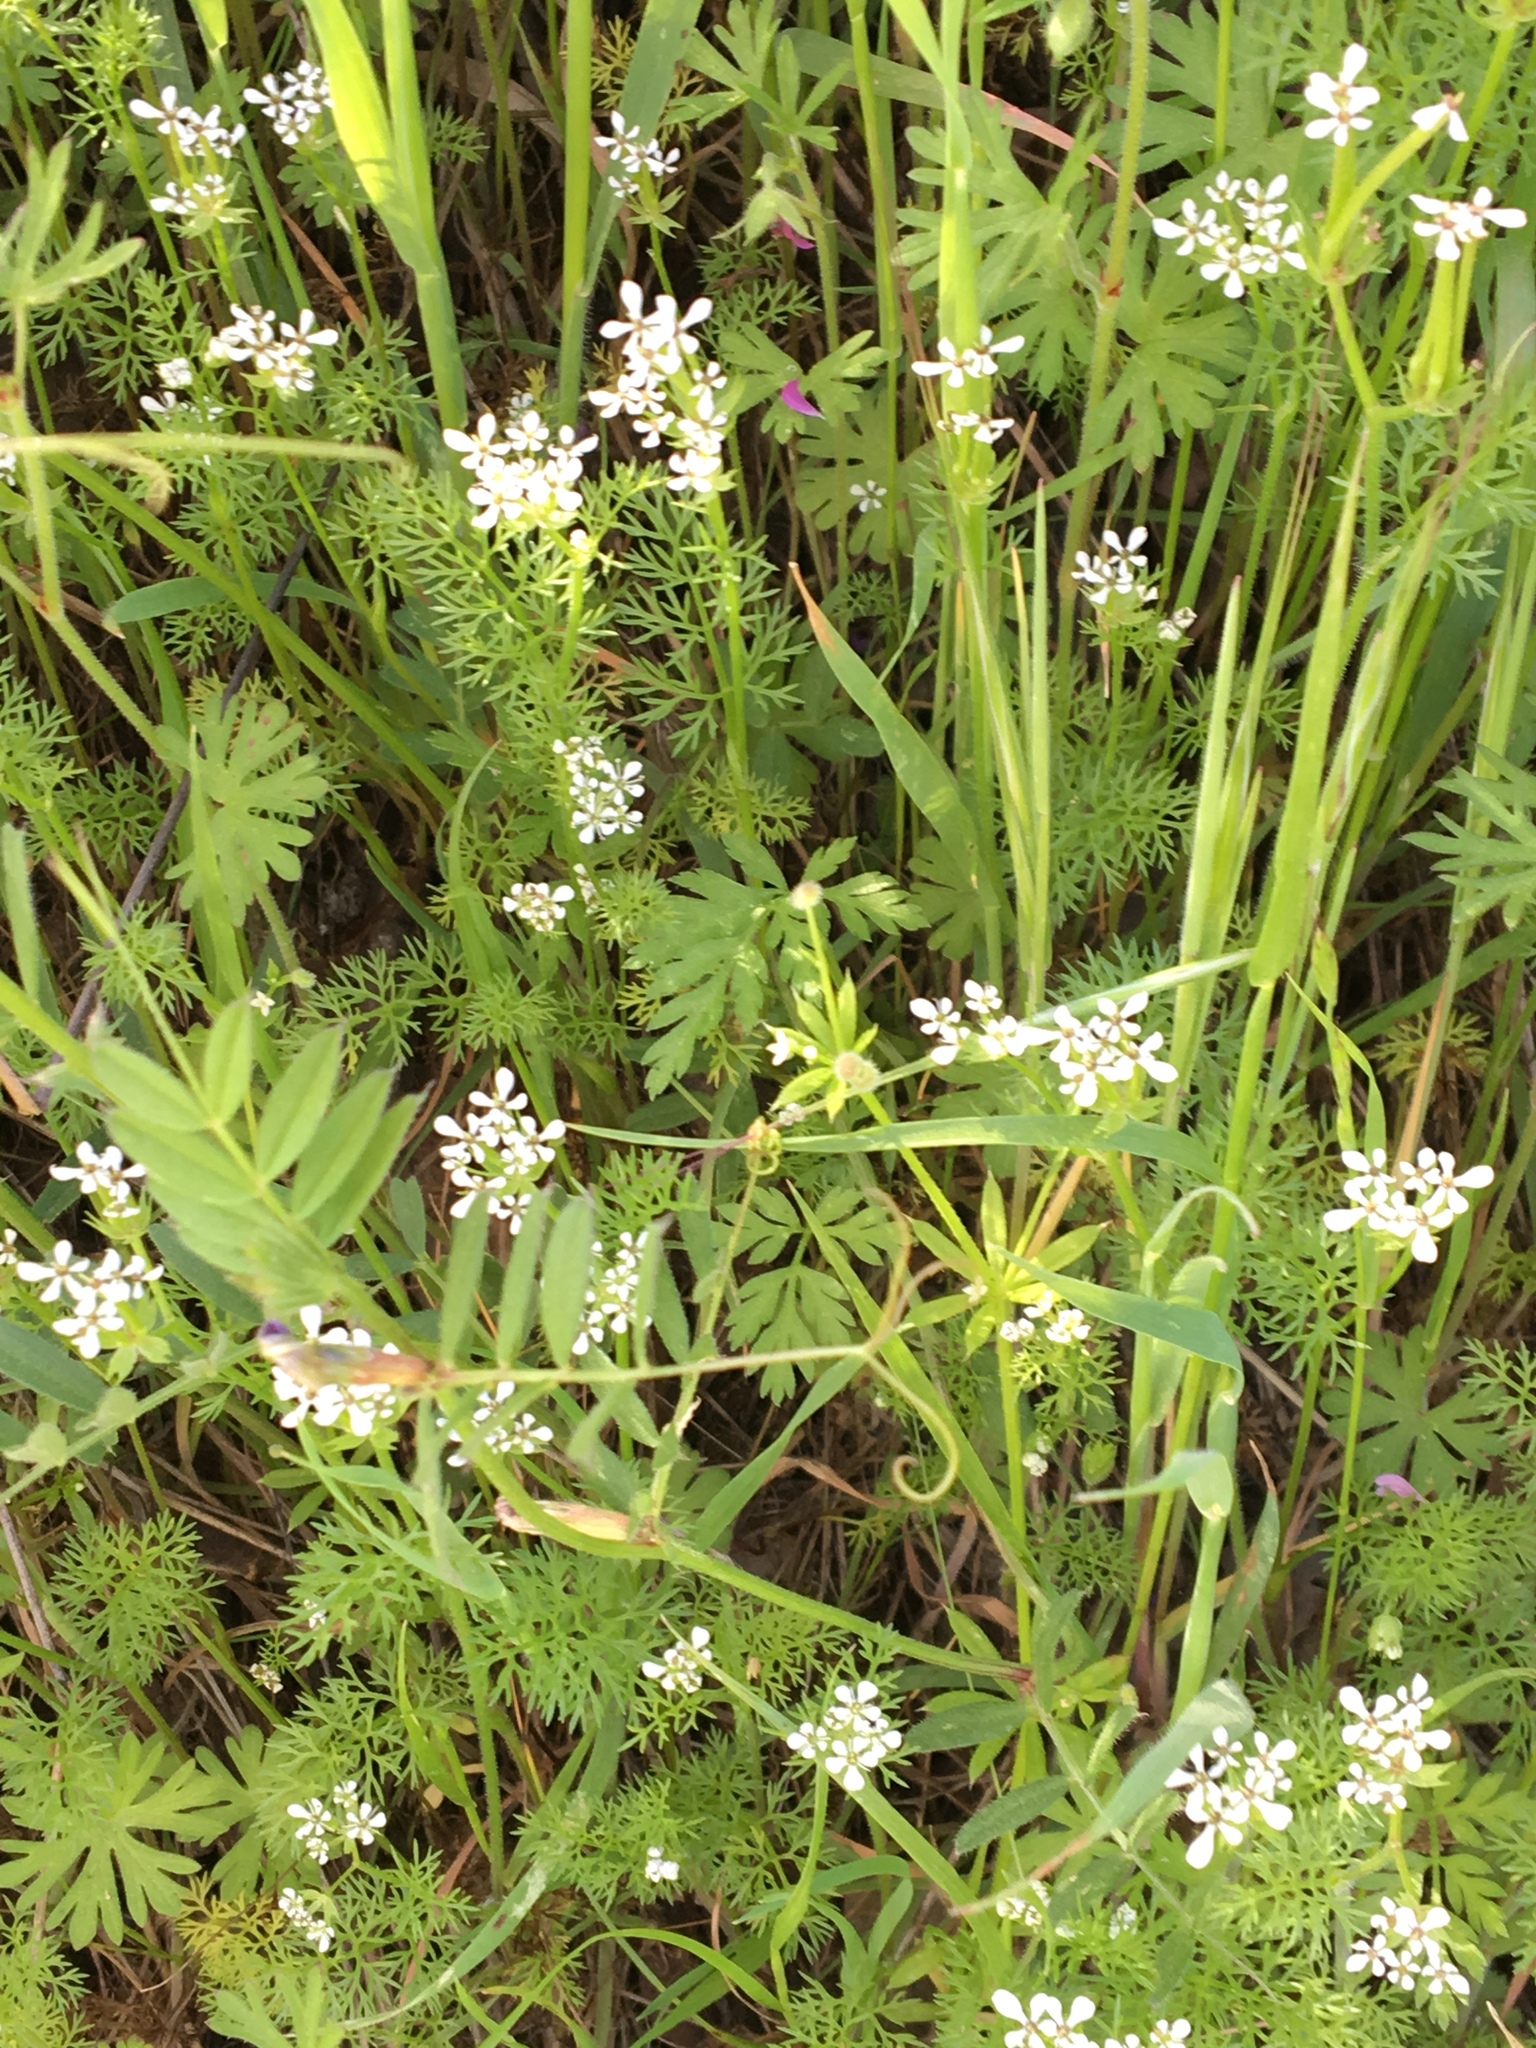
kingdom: Plantae
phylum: Tracheophyta
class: Magnoliopsida
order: Apiales
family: Apiaceae
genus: Scandix
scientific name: Scandix pecten-veneris
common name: Shepherd's-needle
